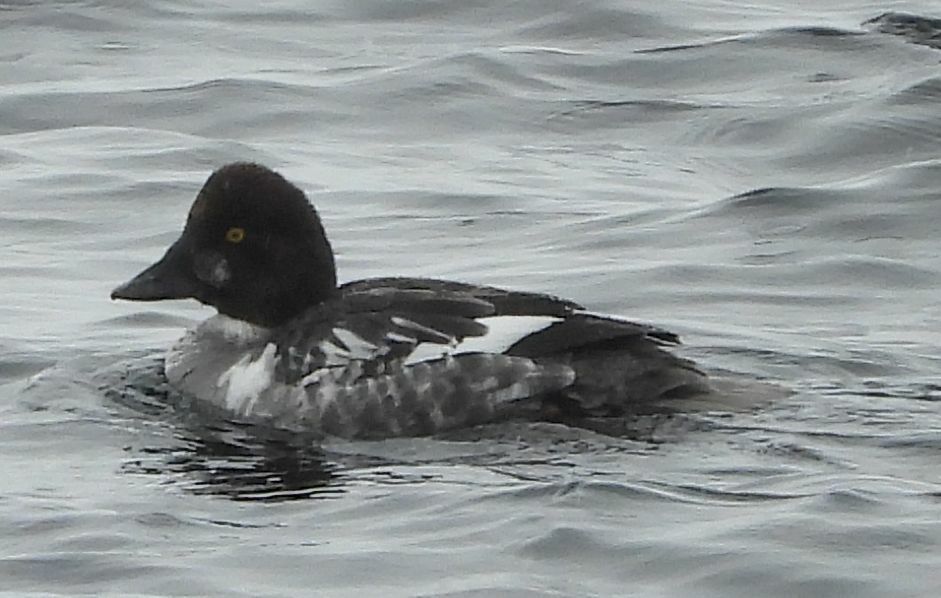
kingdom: Animalia
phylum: Chordata
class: Aves
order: Anseriformes
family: Anatidae
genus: Bucephala
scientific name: Bucephala clangula
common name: Common goldeneye
